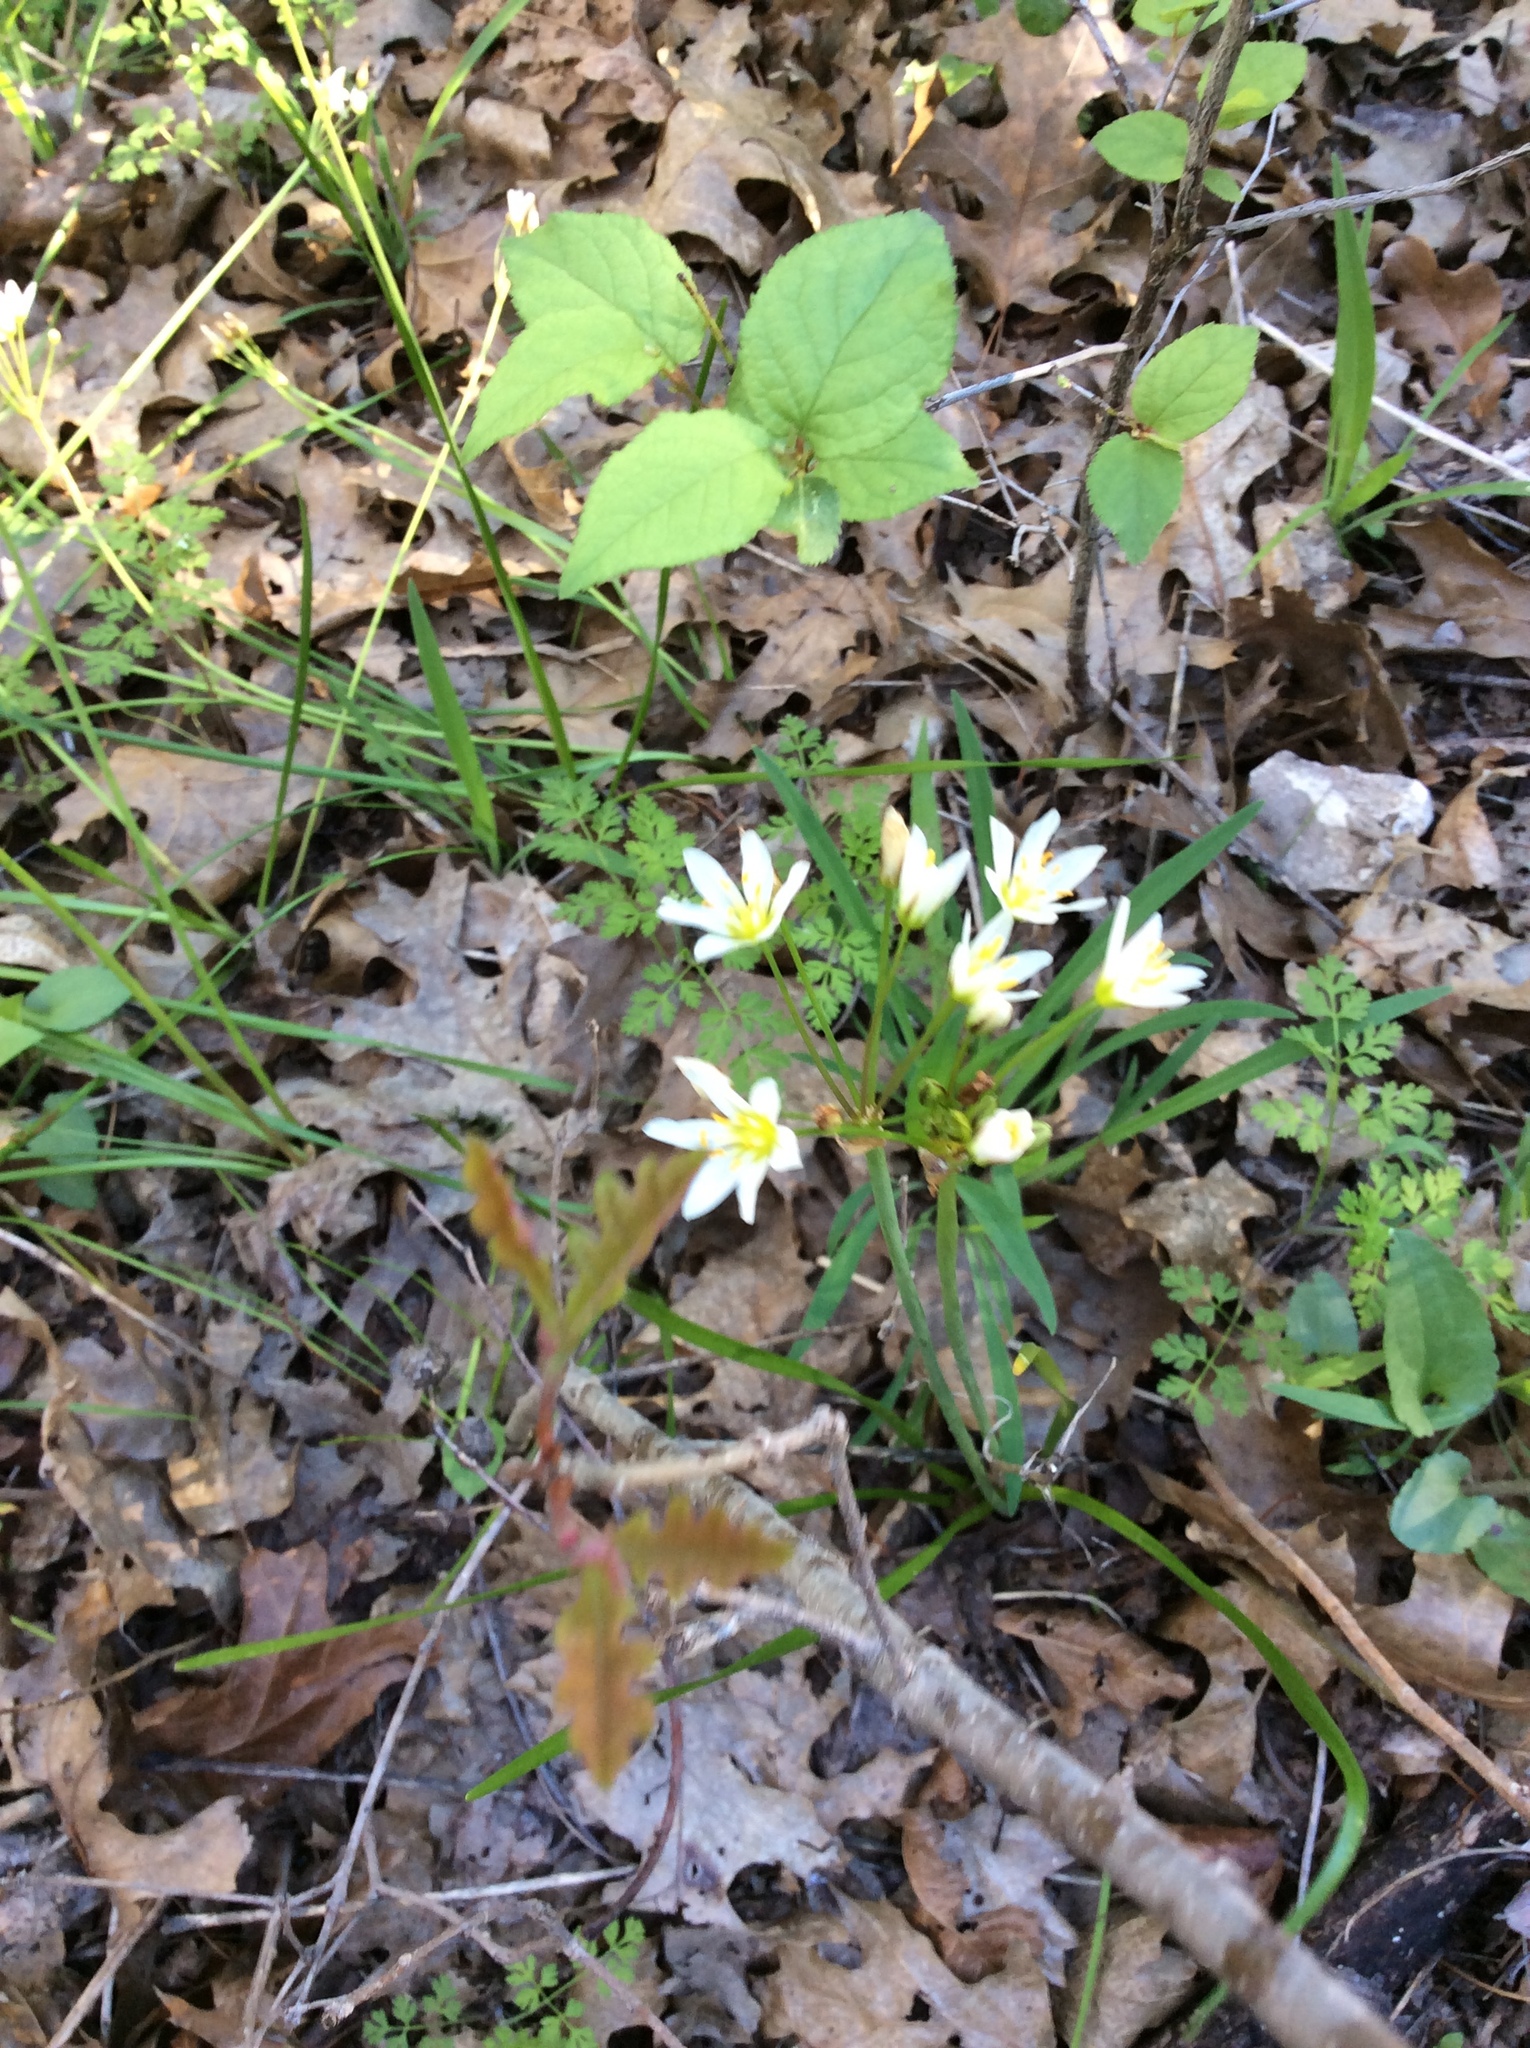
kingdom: Plantae
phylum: Tracheophyta
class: Liliopsida
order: Asparagales
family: Amaryllidaceae
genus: Nothoscordum
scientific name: Nothoscordum bivalve
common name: Crow-poison
